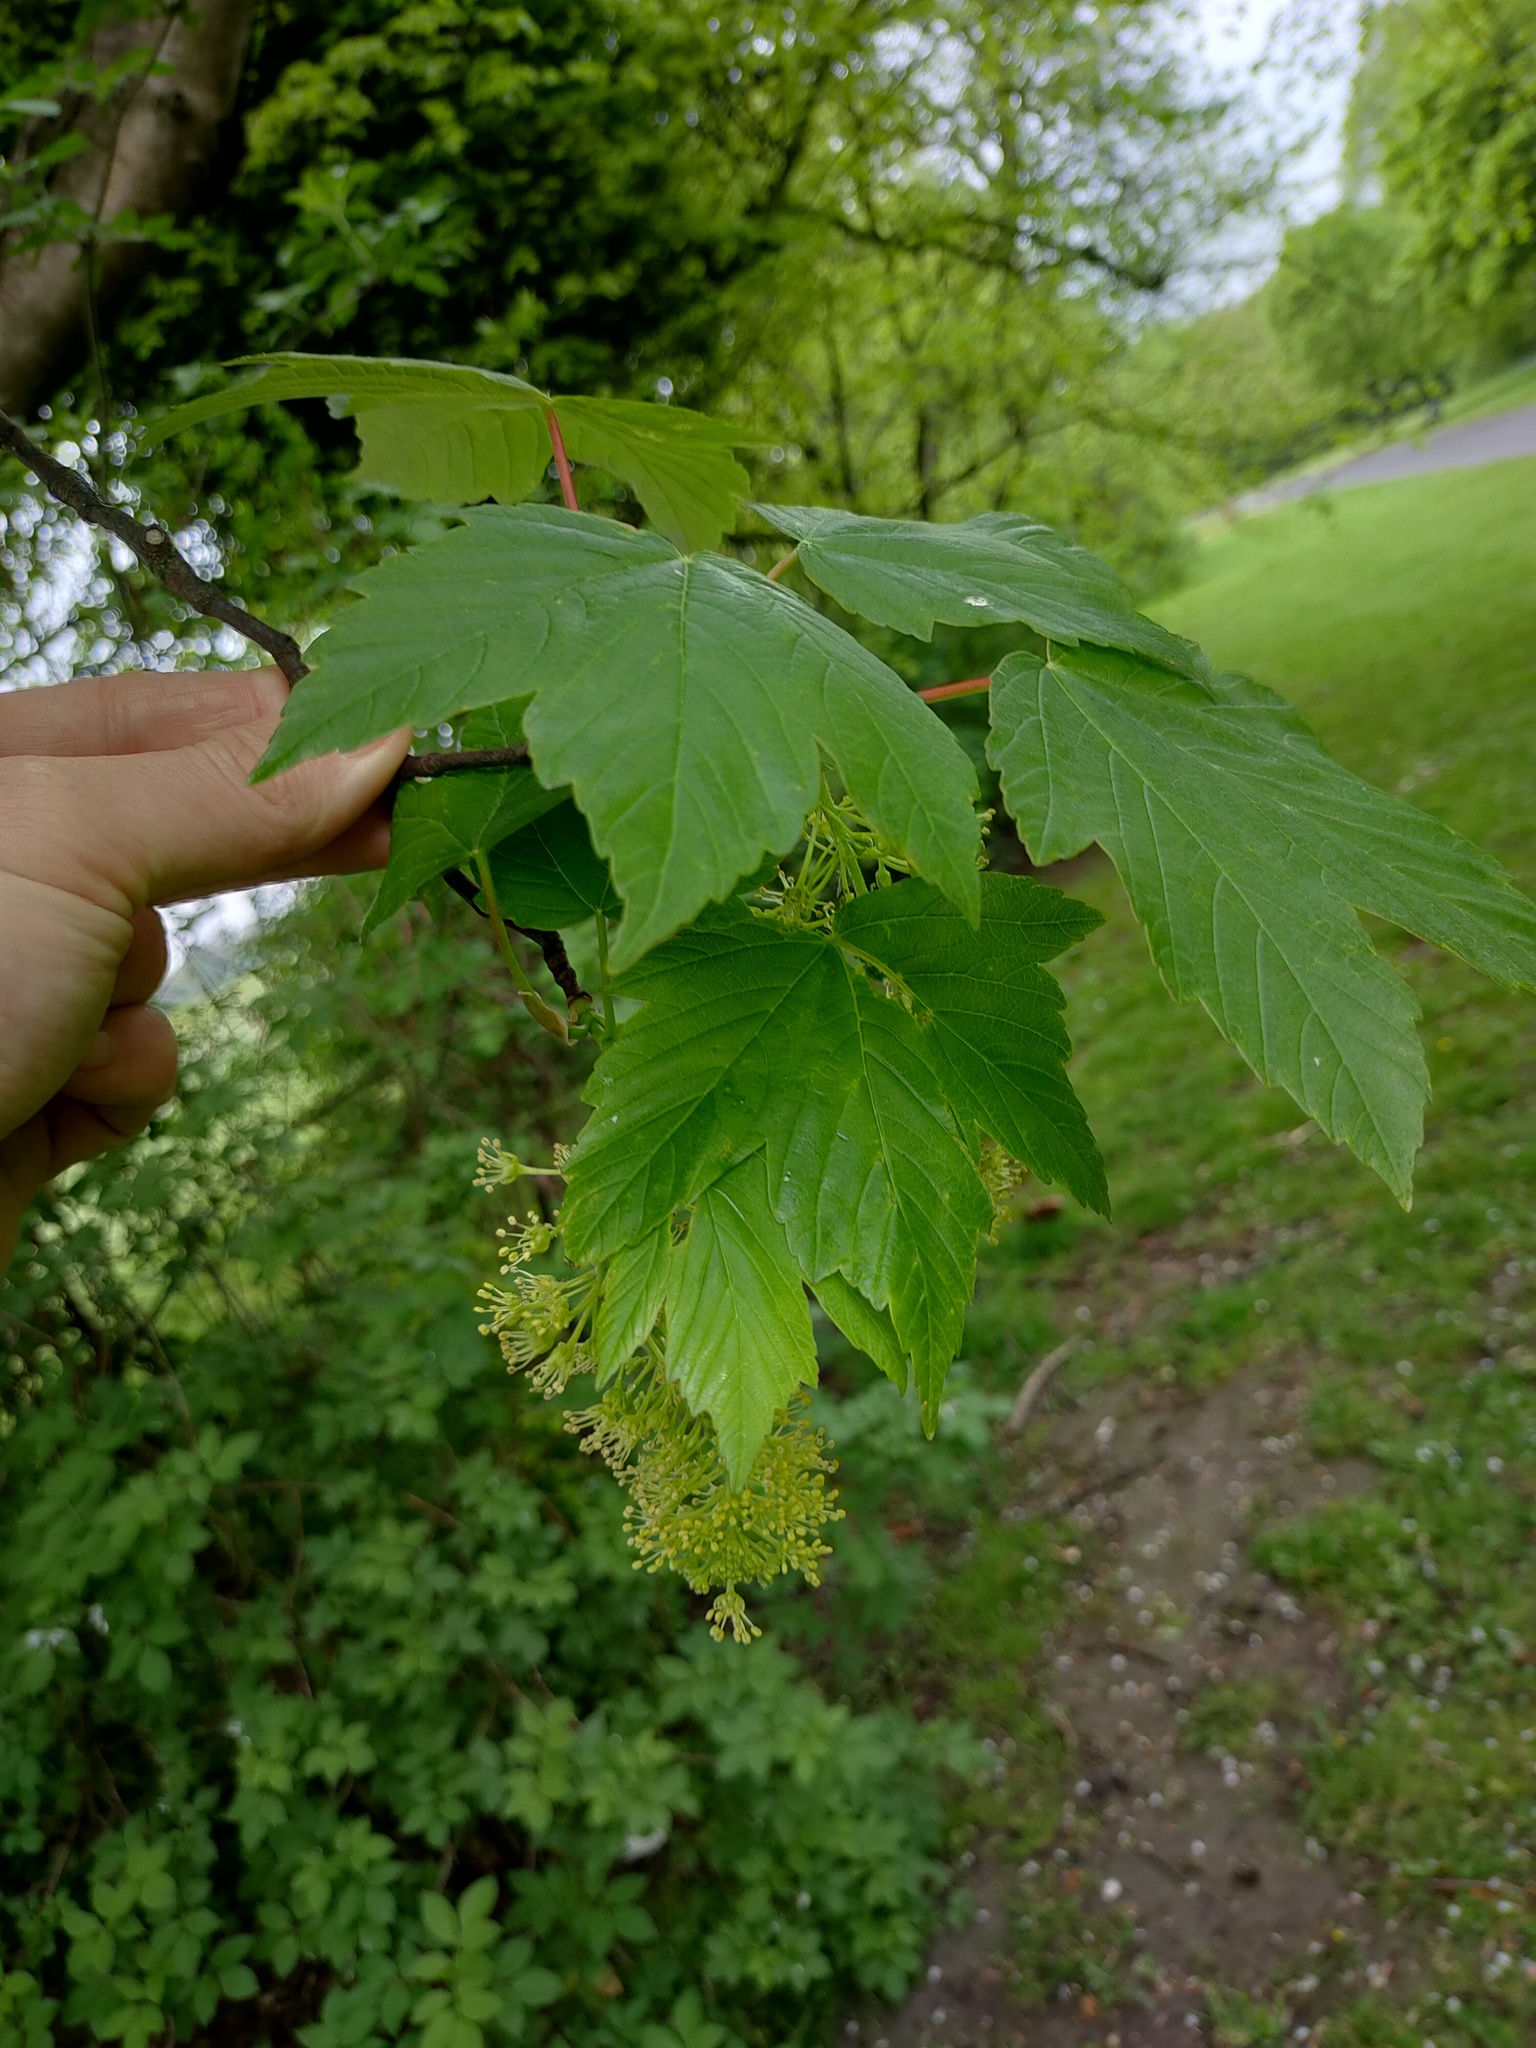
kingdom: Plantae
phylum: Tracheophyta
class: Magnoliopsida
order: Sapindales
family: Sapindaceae
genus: Acer
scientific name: Acer pseudoplatanus
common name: Sycamore
